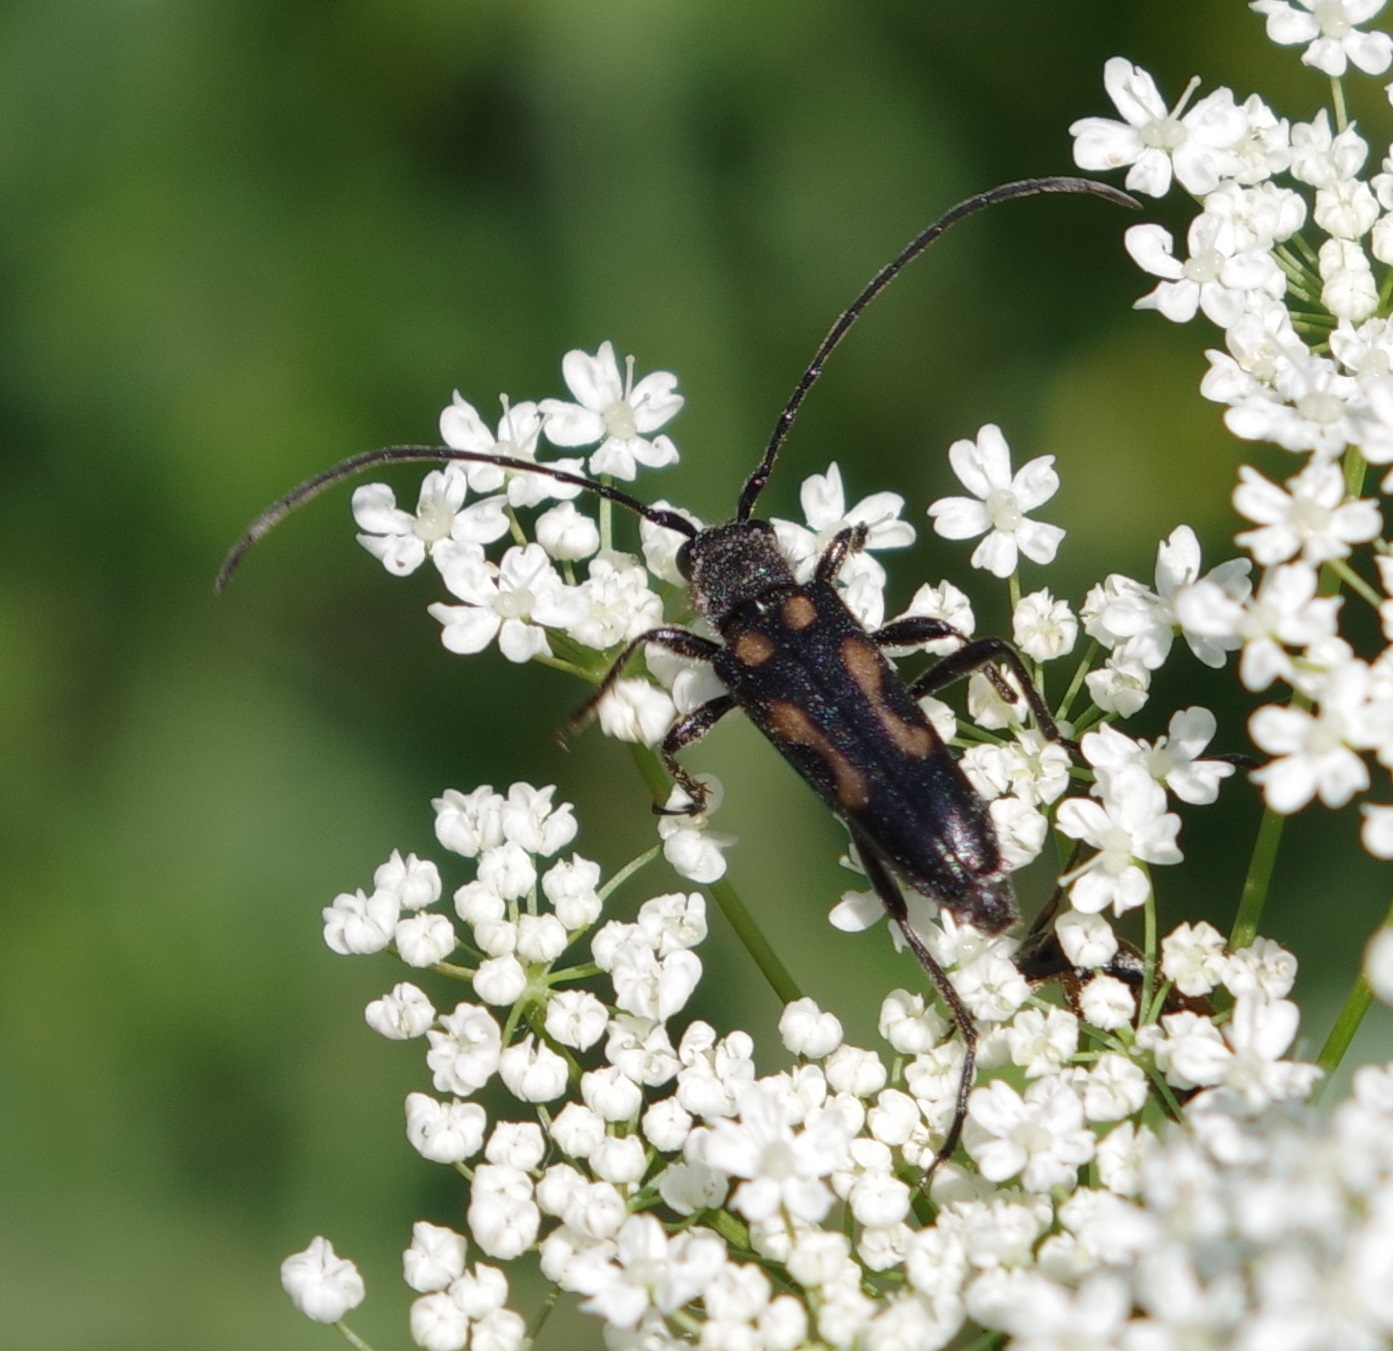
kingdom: Animalia
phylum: Arthropoda
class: Insecta
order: Coleoptera
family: Cerambycidae
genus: Anoplodera
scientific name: Anoplodera sexguttata
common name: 6 spotted longhorn
